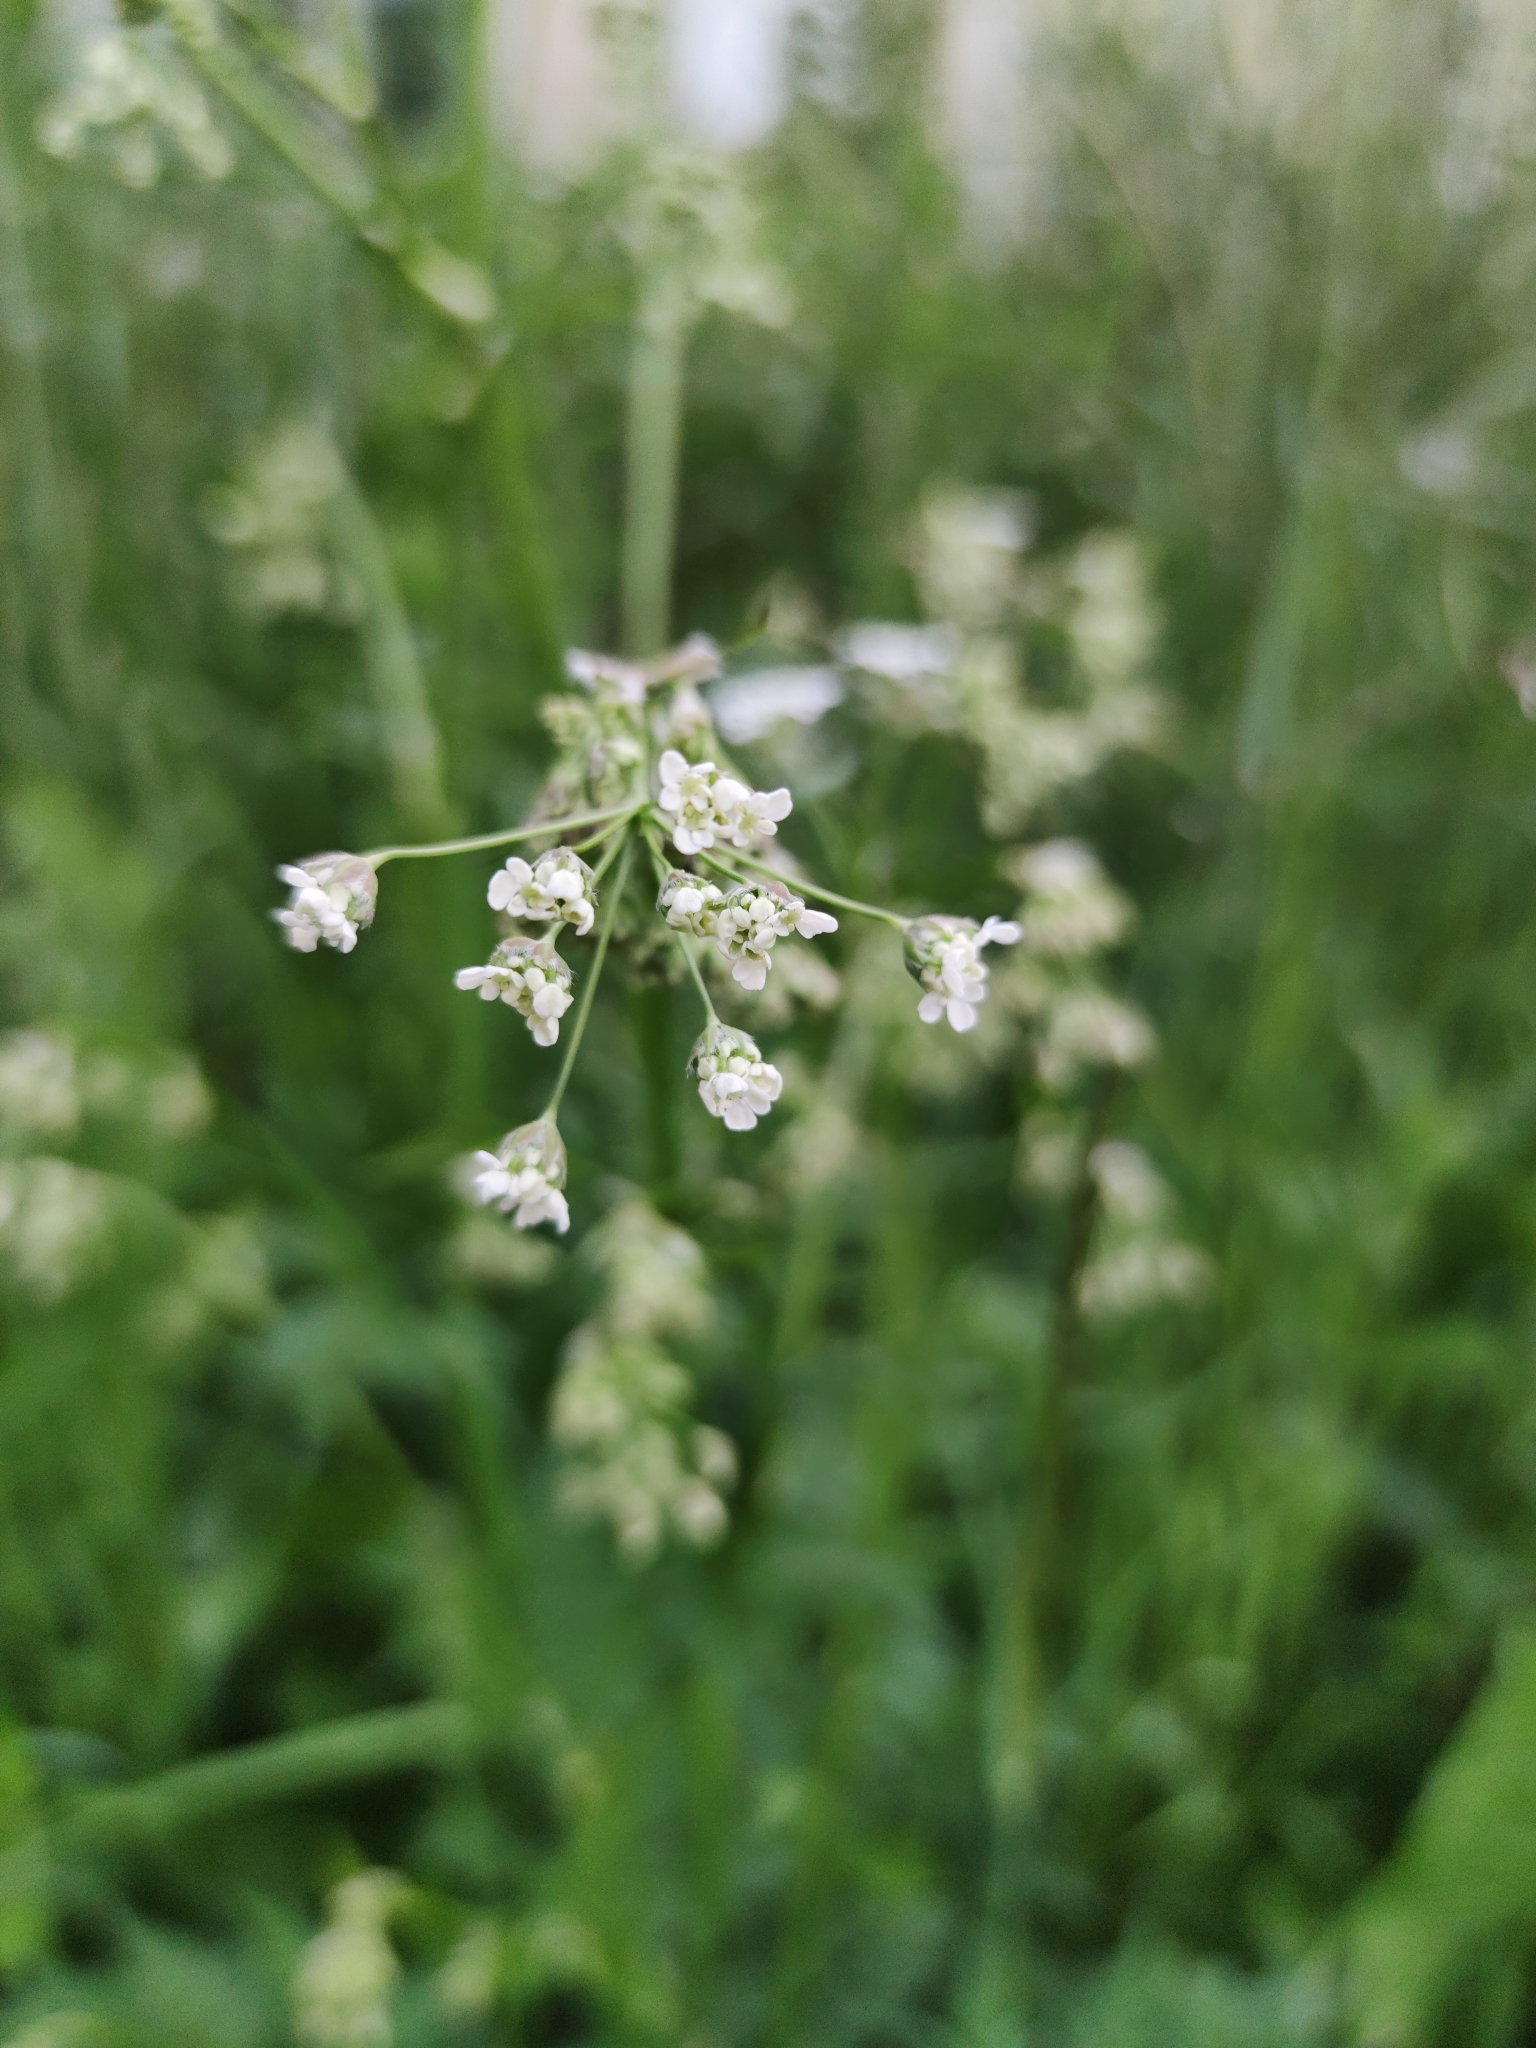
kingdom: Plantae
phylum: Tracheophyta
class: Magnoliopsida
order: Apiales
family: Apiaceae
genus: Anthriscus
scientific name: Anthriscus sylvestris
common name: Cow parsley
